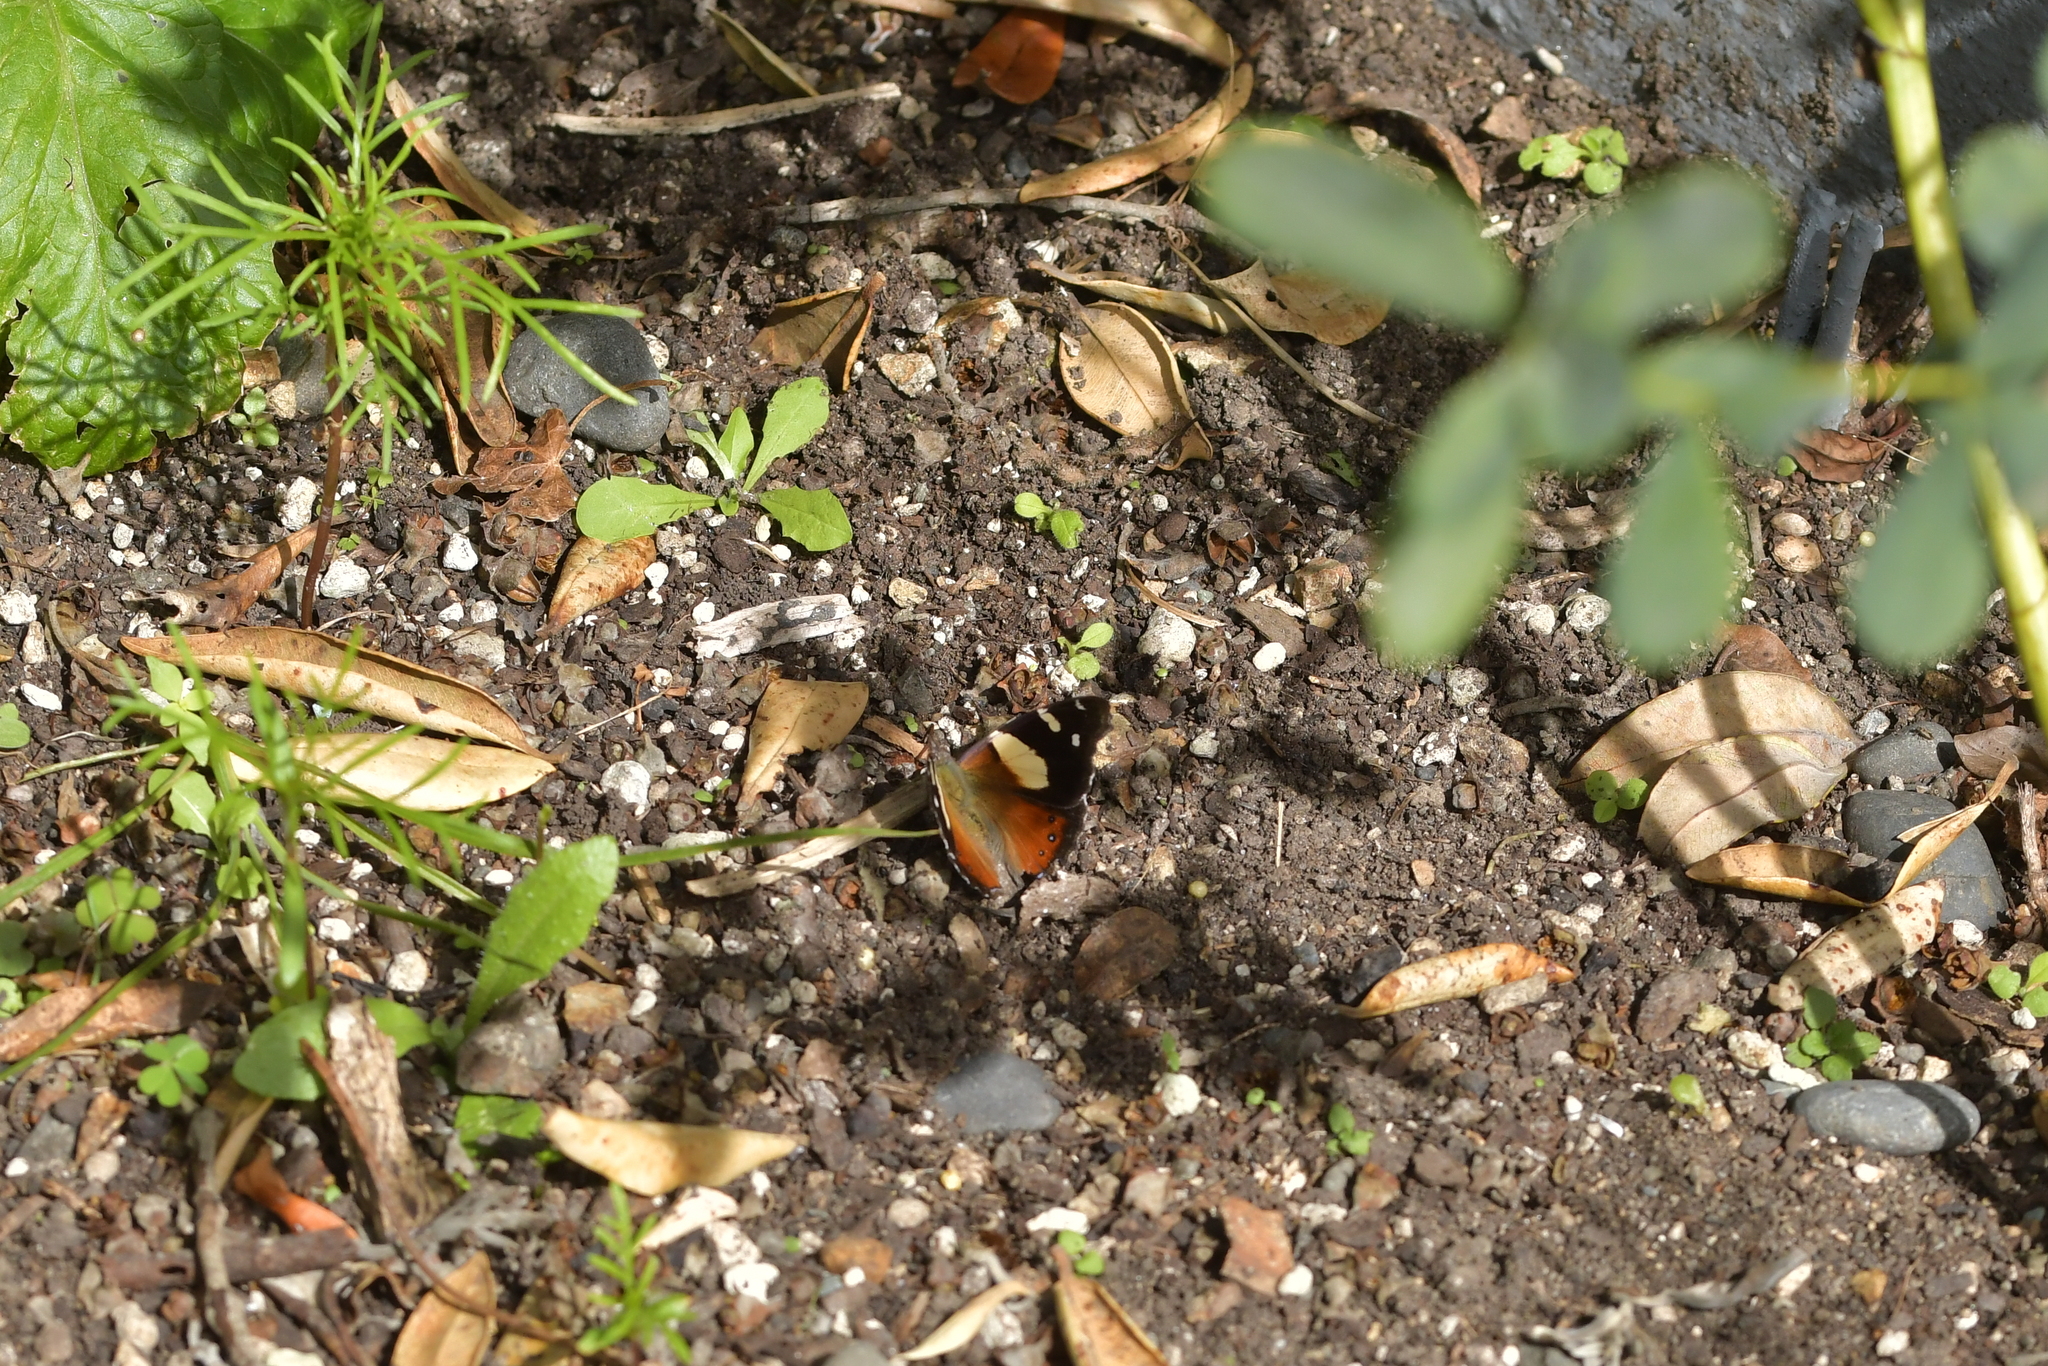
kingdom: Animalia
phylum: Arthropoda
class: Insecta
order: Lepidoptera
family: Nymphalidae
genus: Vanessa
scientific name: Vanessa itea
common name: Yellow admiral
